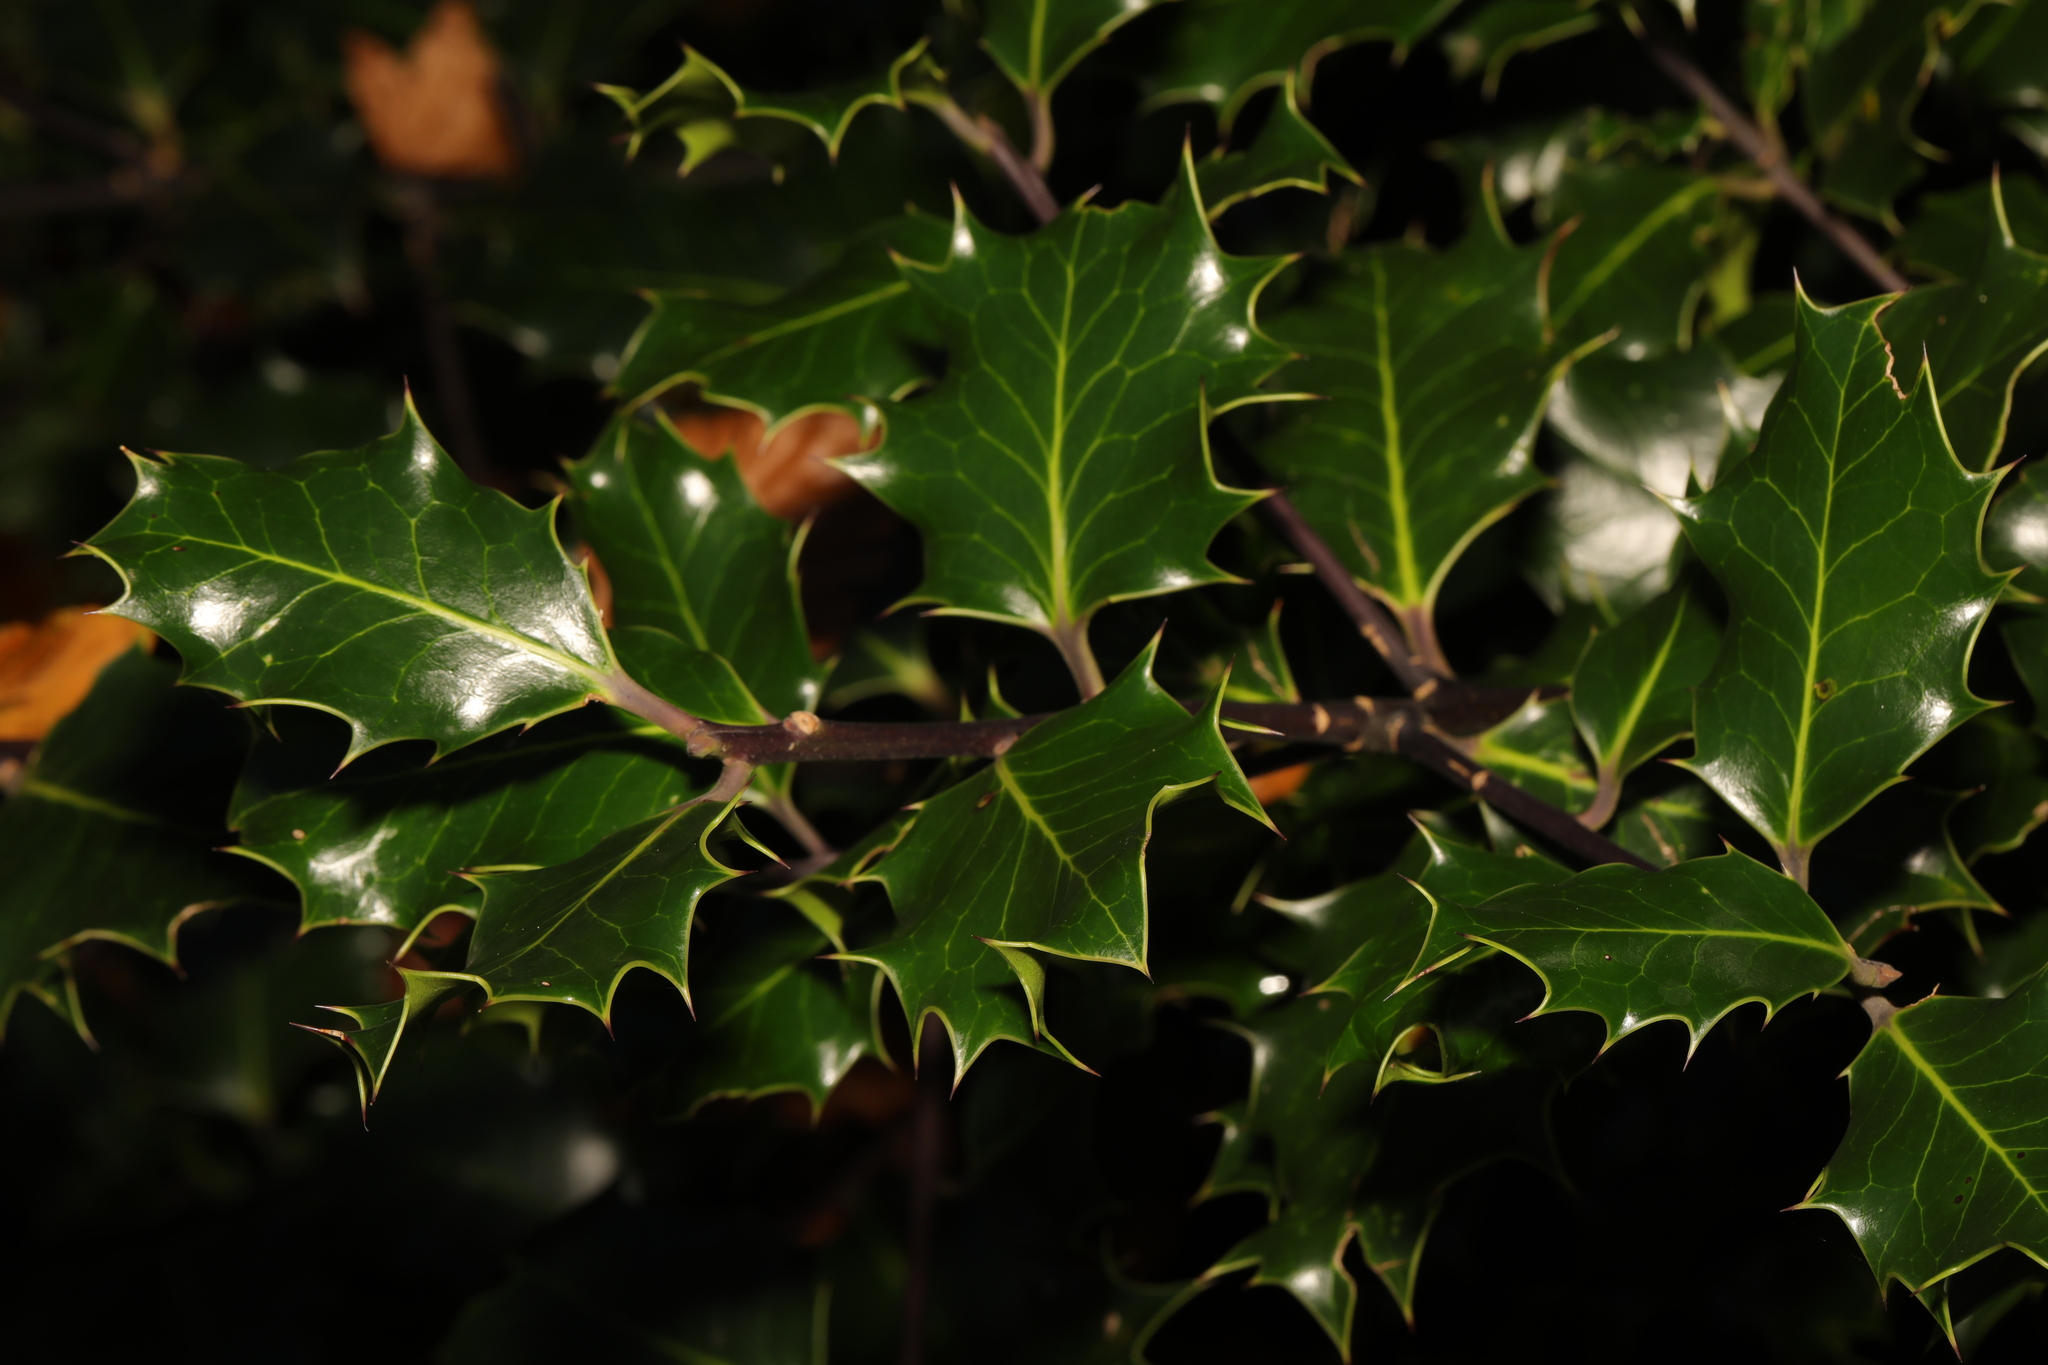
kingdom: Plantae
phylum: Tracheophyta
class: Magnoliopsida
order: Aquifoliales
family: Aquifoliaceae
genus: Ilex
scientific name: Ilex aquifolium
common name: English holly
